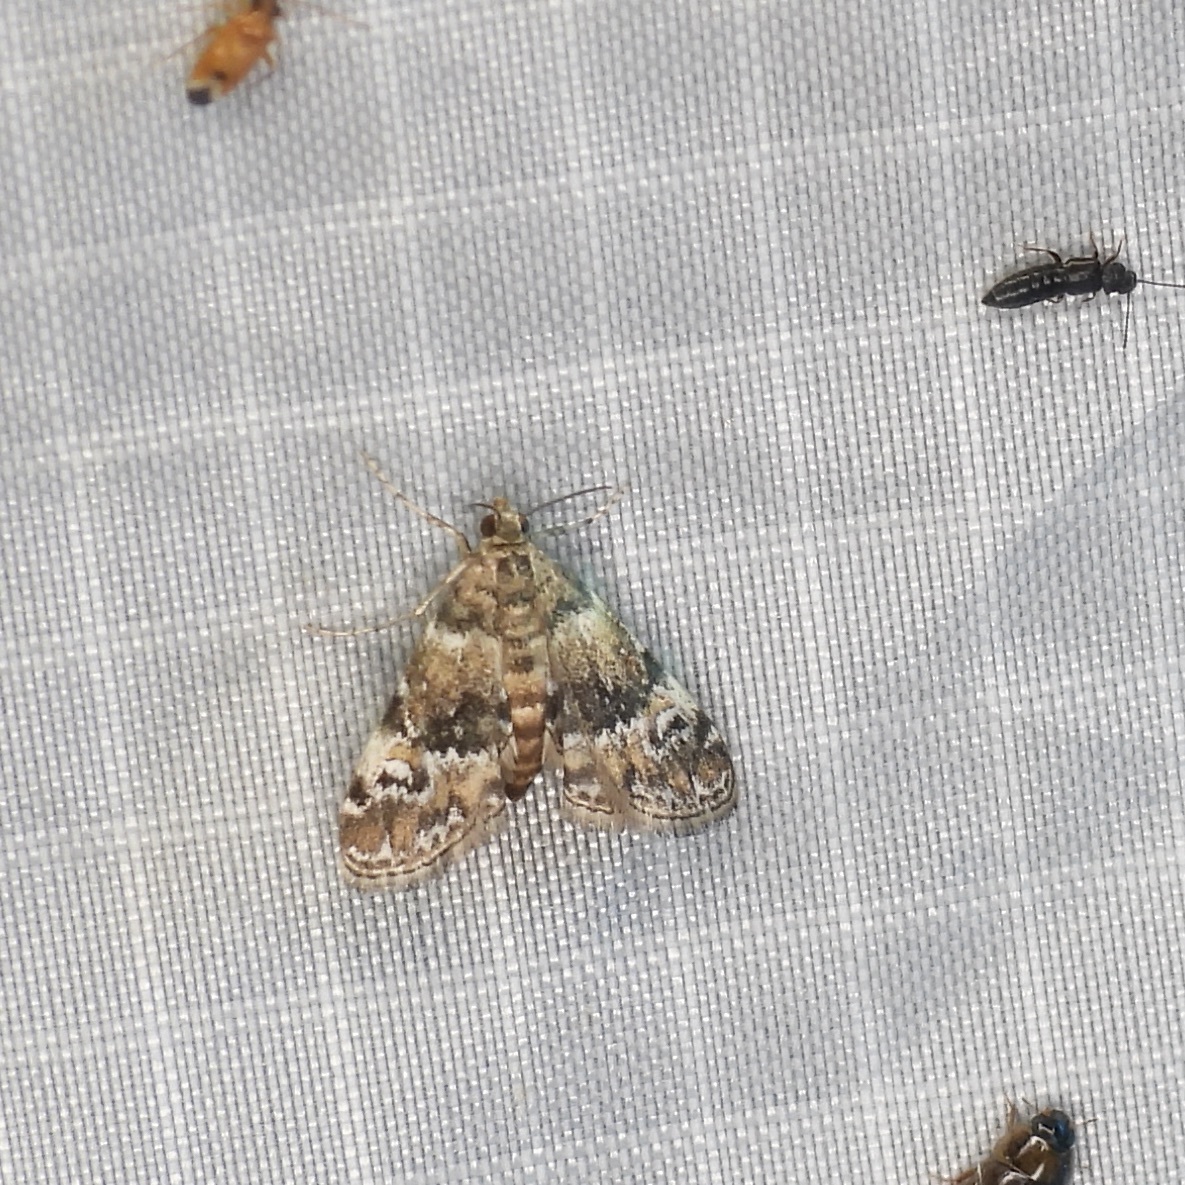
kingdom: Animalia
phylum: Arthropoda
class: Insecta
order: Lepidoptera
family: Crambidae
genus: Elophila
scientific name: Elophila obliteralis
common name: Waterlily leafcutter moth
